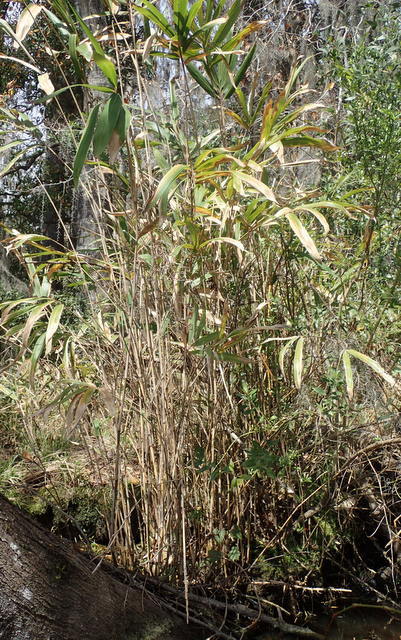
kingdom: Plantae
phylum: Tracheophyta
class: Liliopsida
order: Poales
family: Poaceae
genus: Arundinaria
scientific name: Arundinaria tecta
